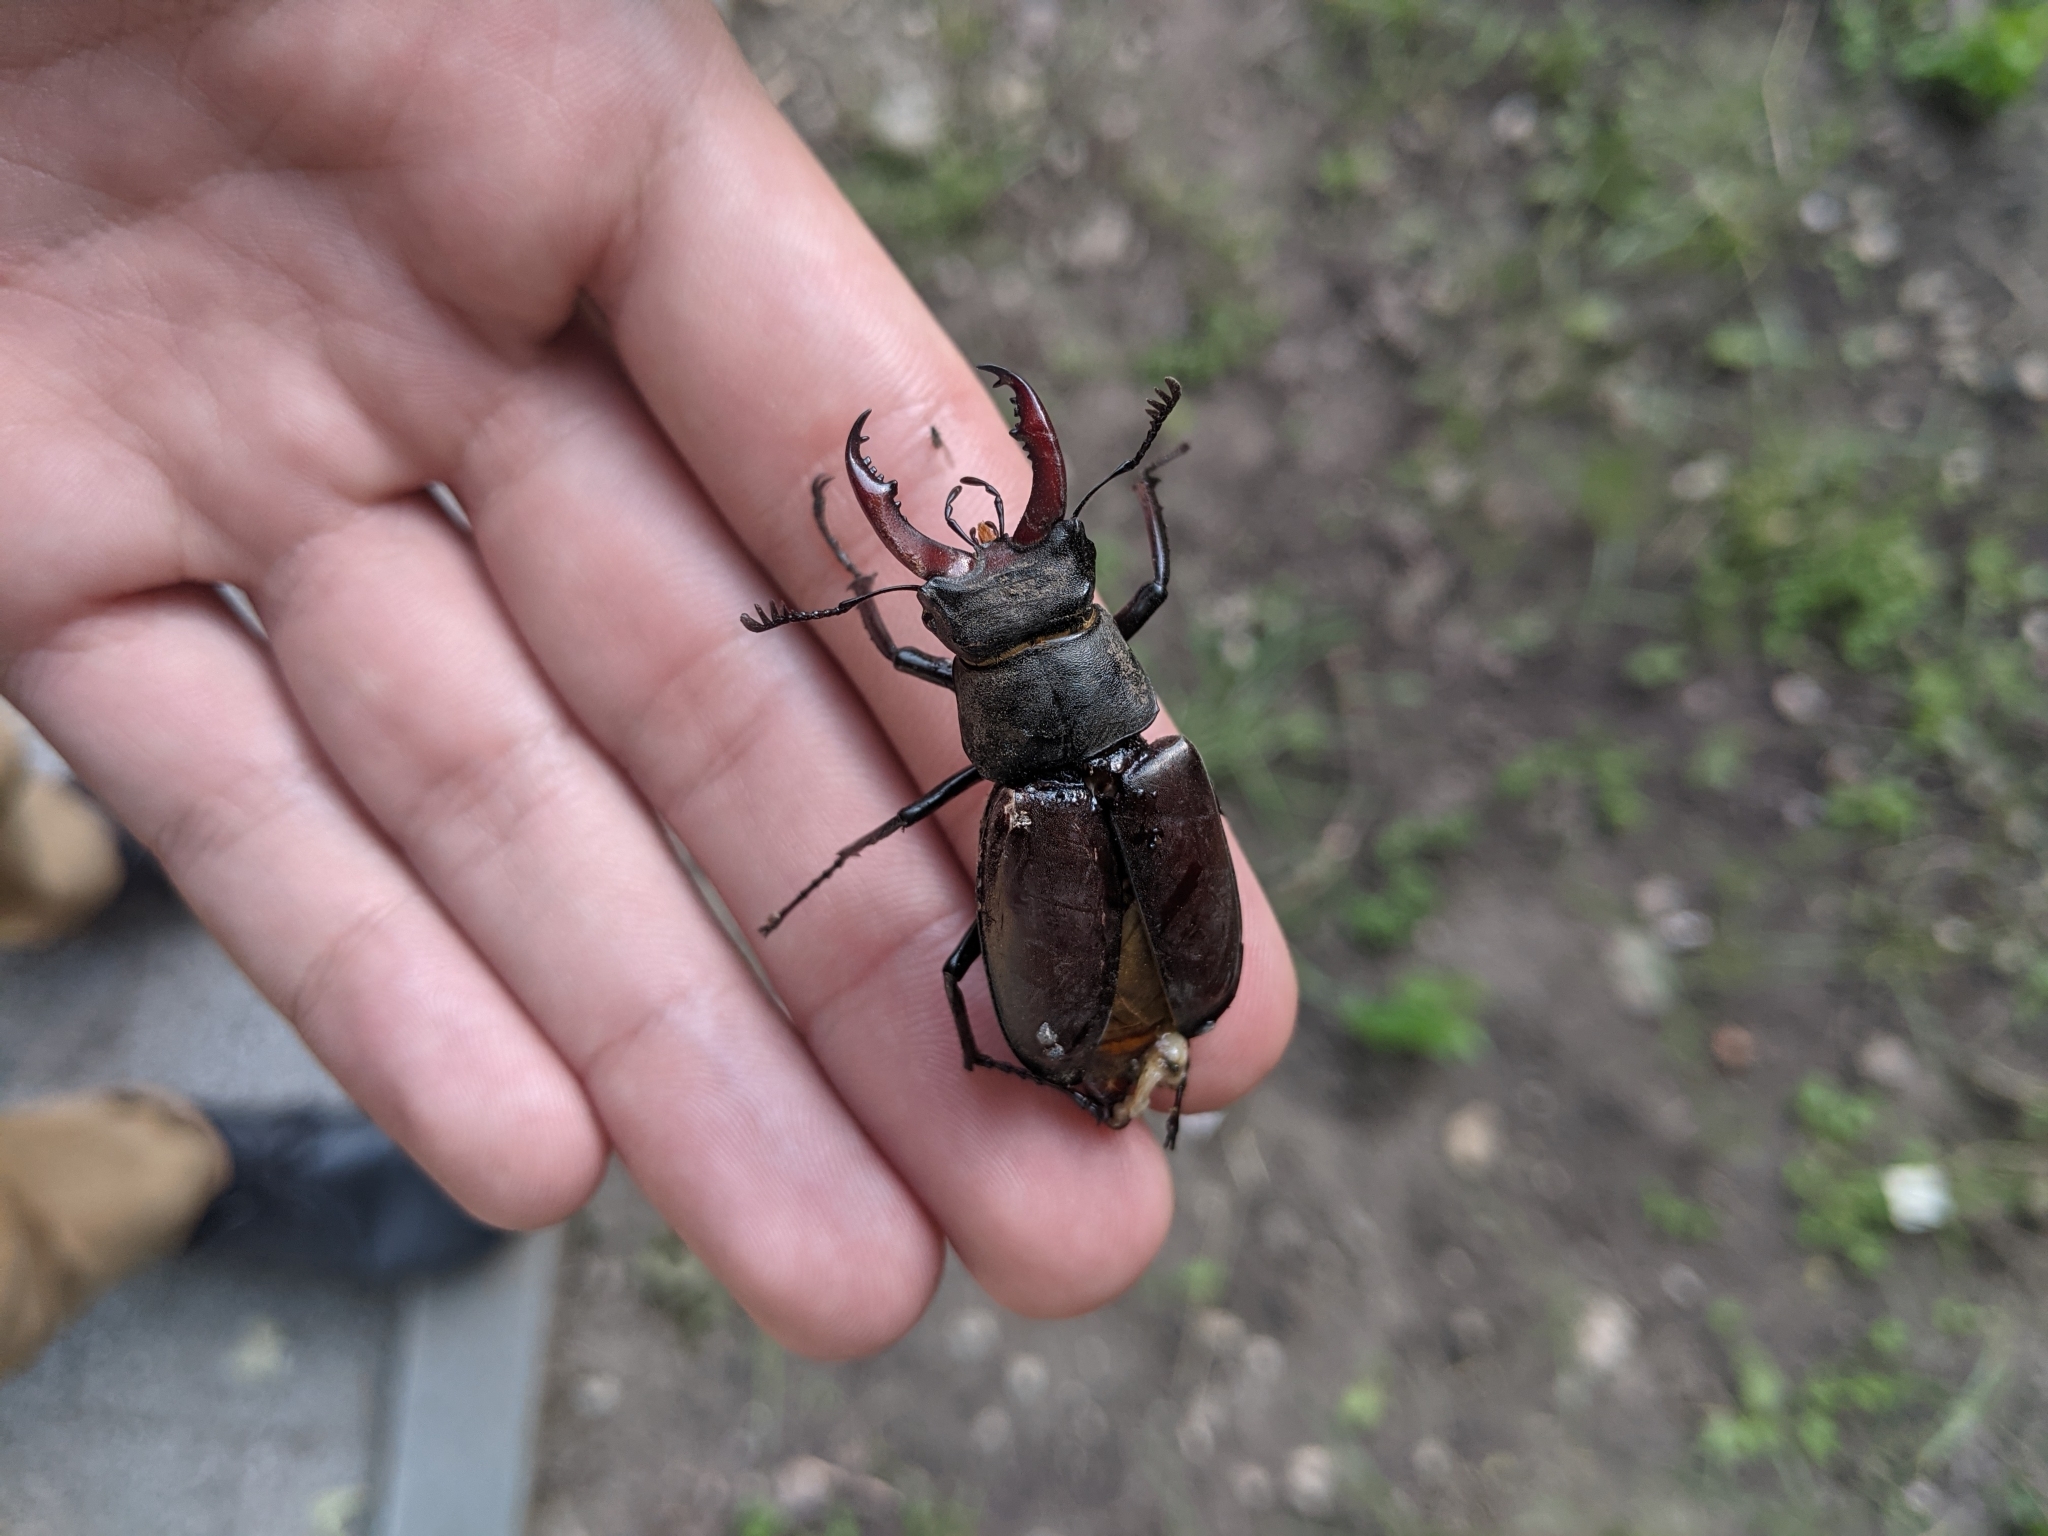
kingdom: Animalia
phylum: Arthropoda
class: Insecta
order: Coleoptera
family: Lucanidae
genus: Lucanus
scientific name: Lucanus cervus
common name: Stag beetle
